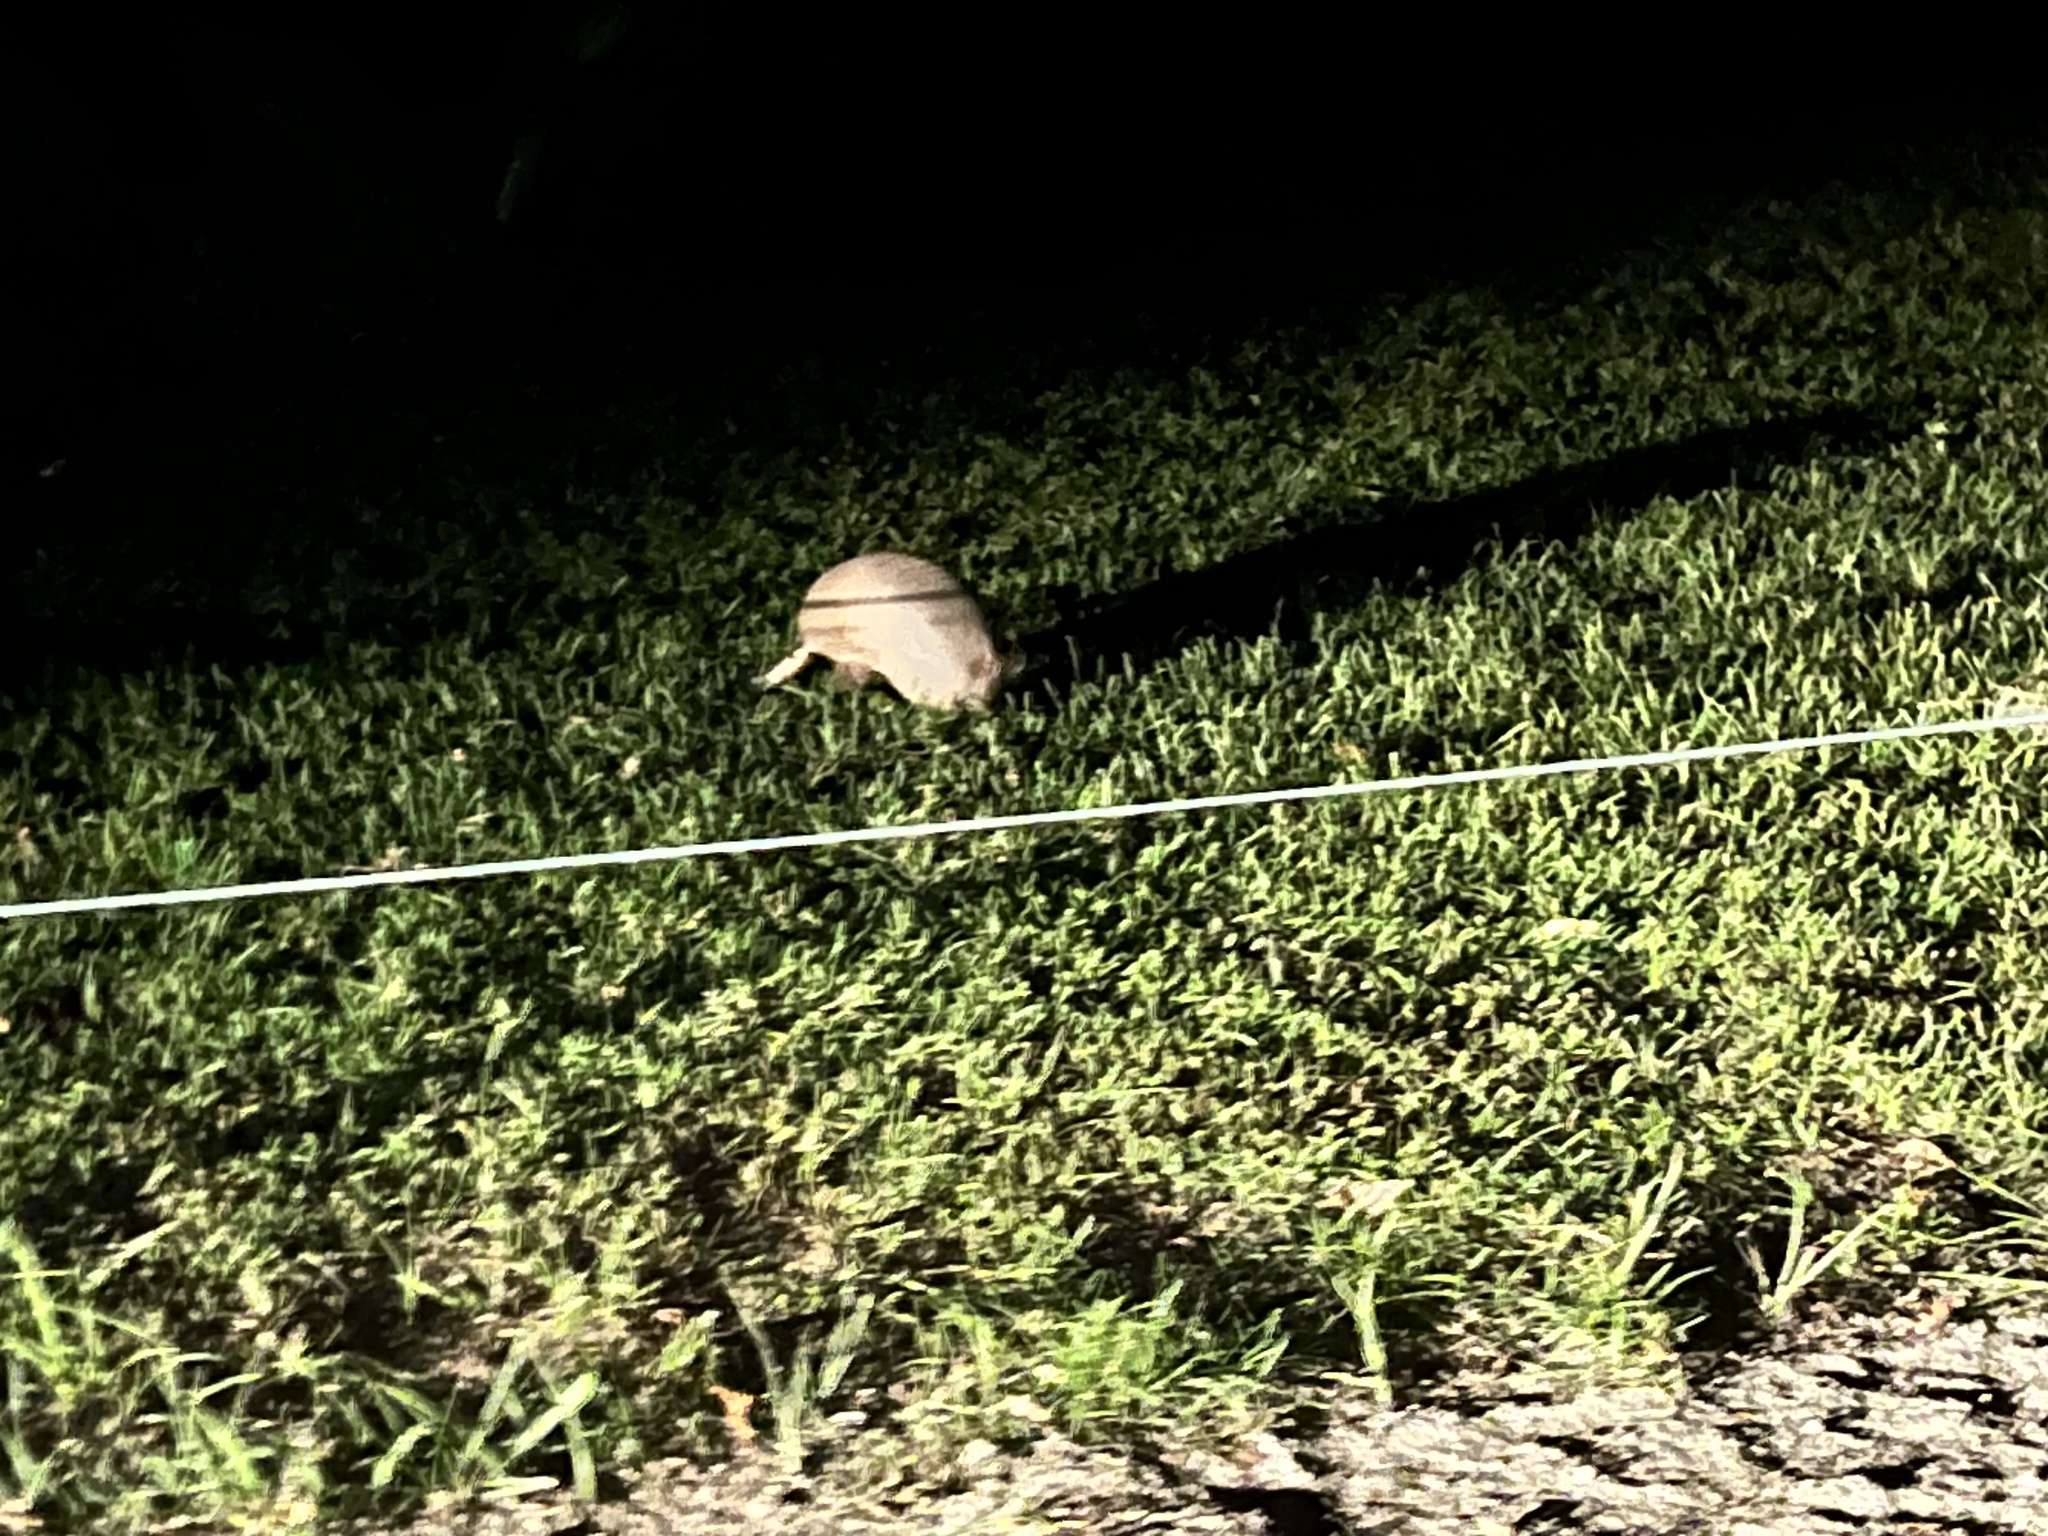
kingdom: Animalia
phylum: Chordata
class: Mammalia
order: Cingulata
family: Dasypodidae
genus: Dasypus
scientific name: Dasypus novemcinctus
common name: Nine-banded armadillo
